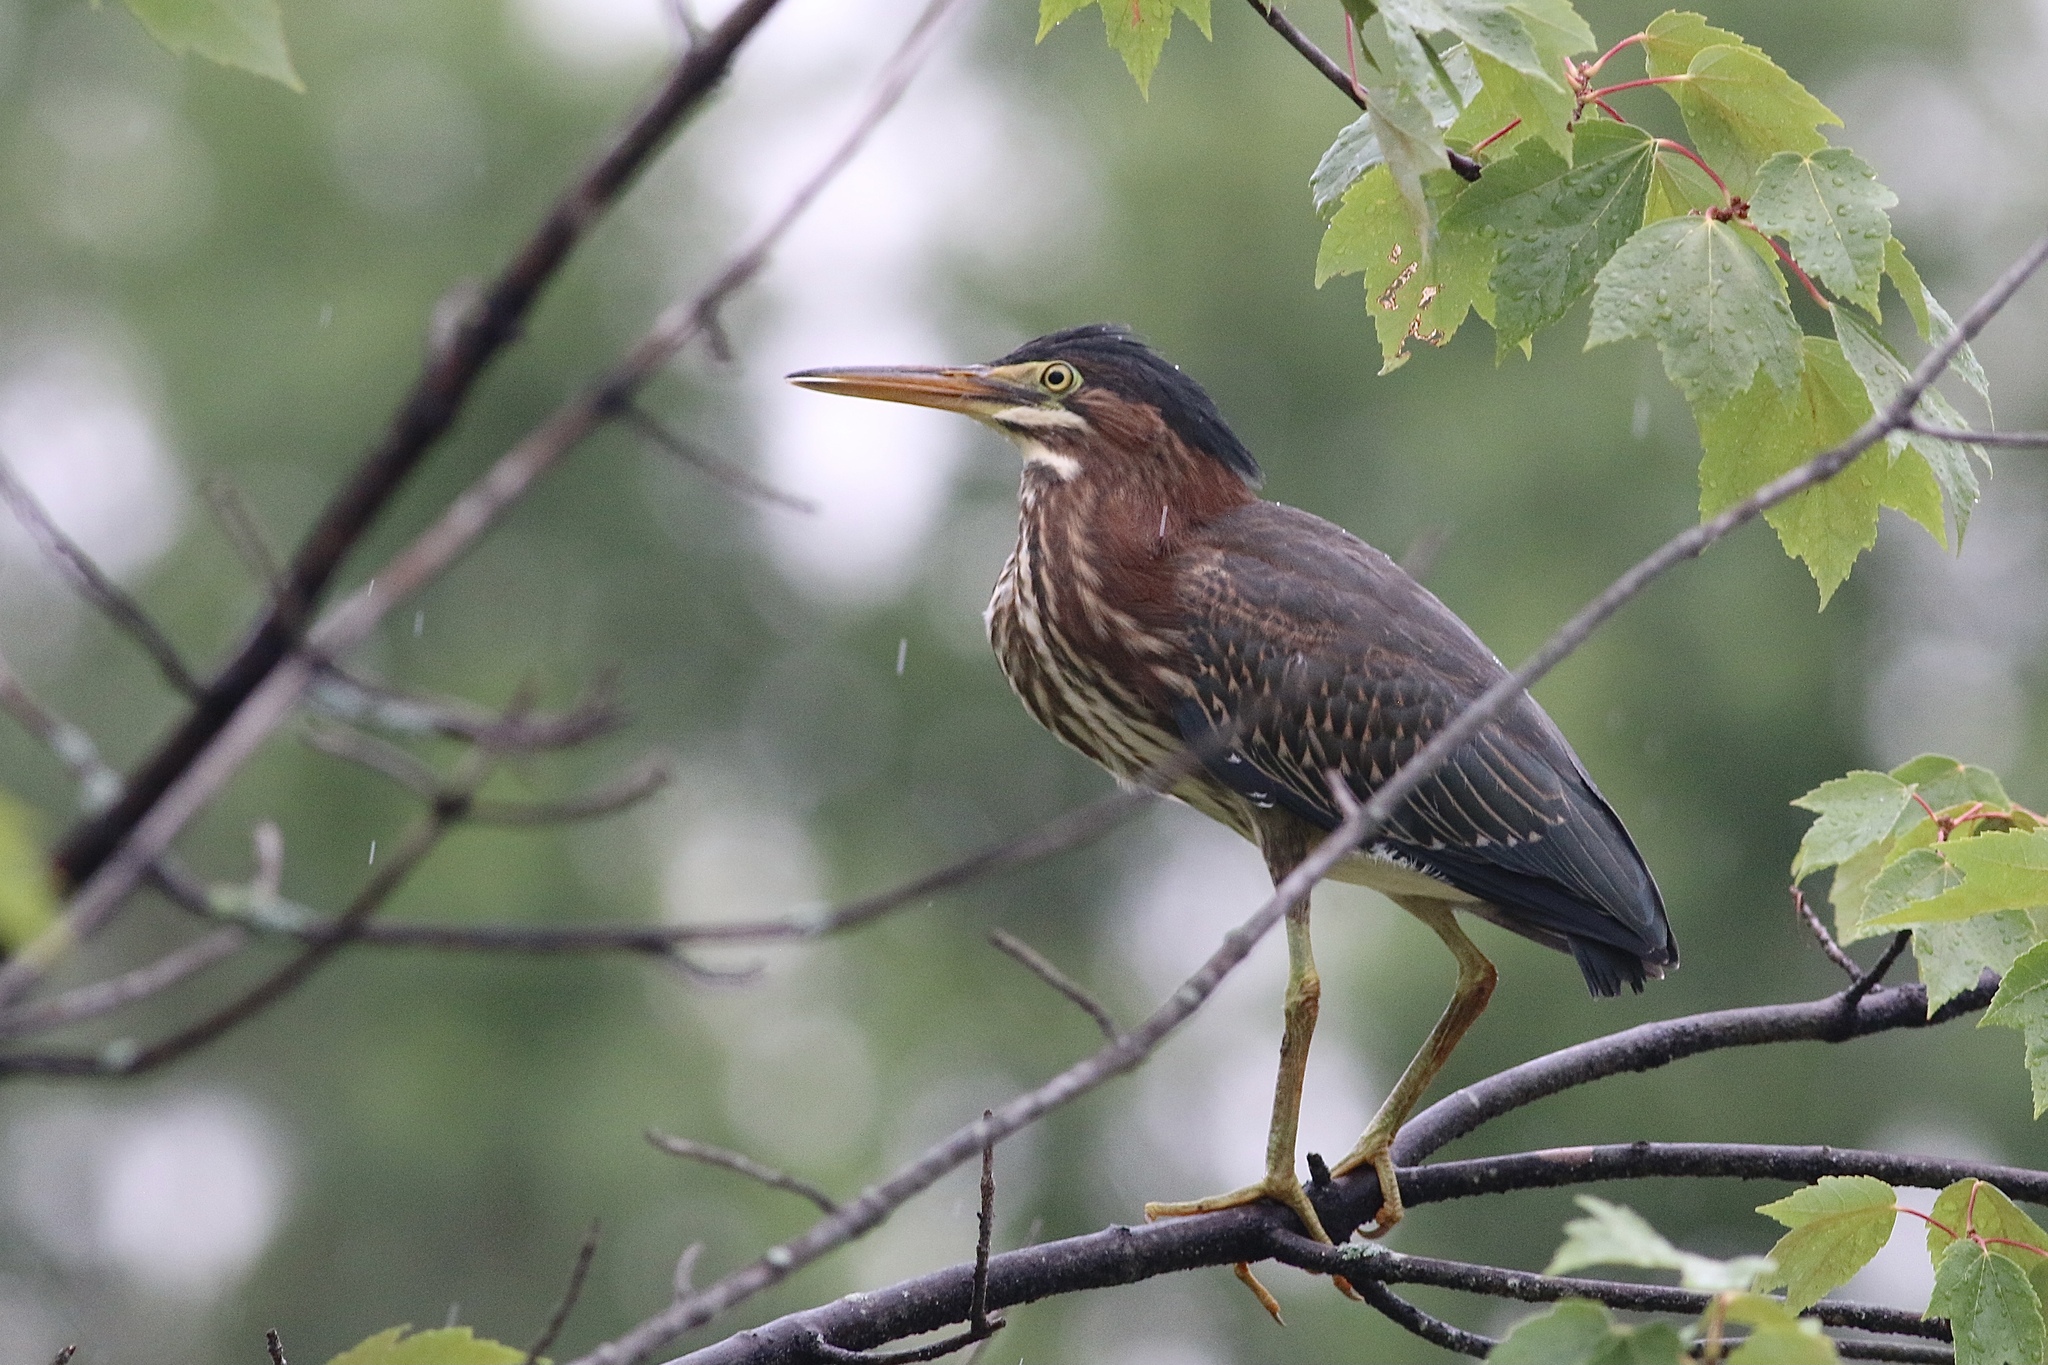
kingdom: Animalia
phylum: Chordata
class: Aves
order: Pelecaniformes
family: Ardeidae
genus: Butorides
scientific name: Butorides virescens
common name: Green heron
